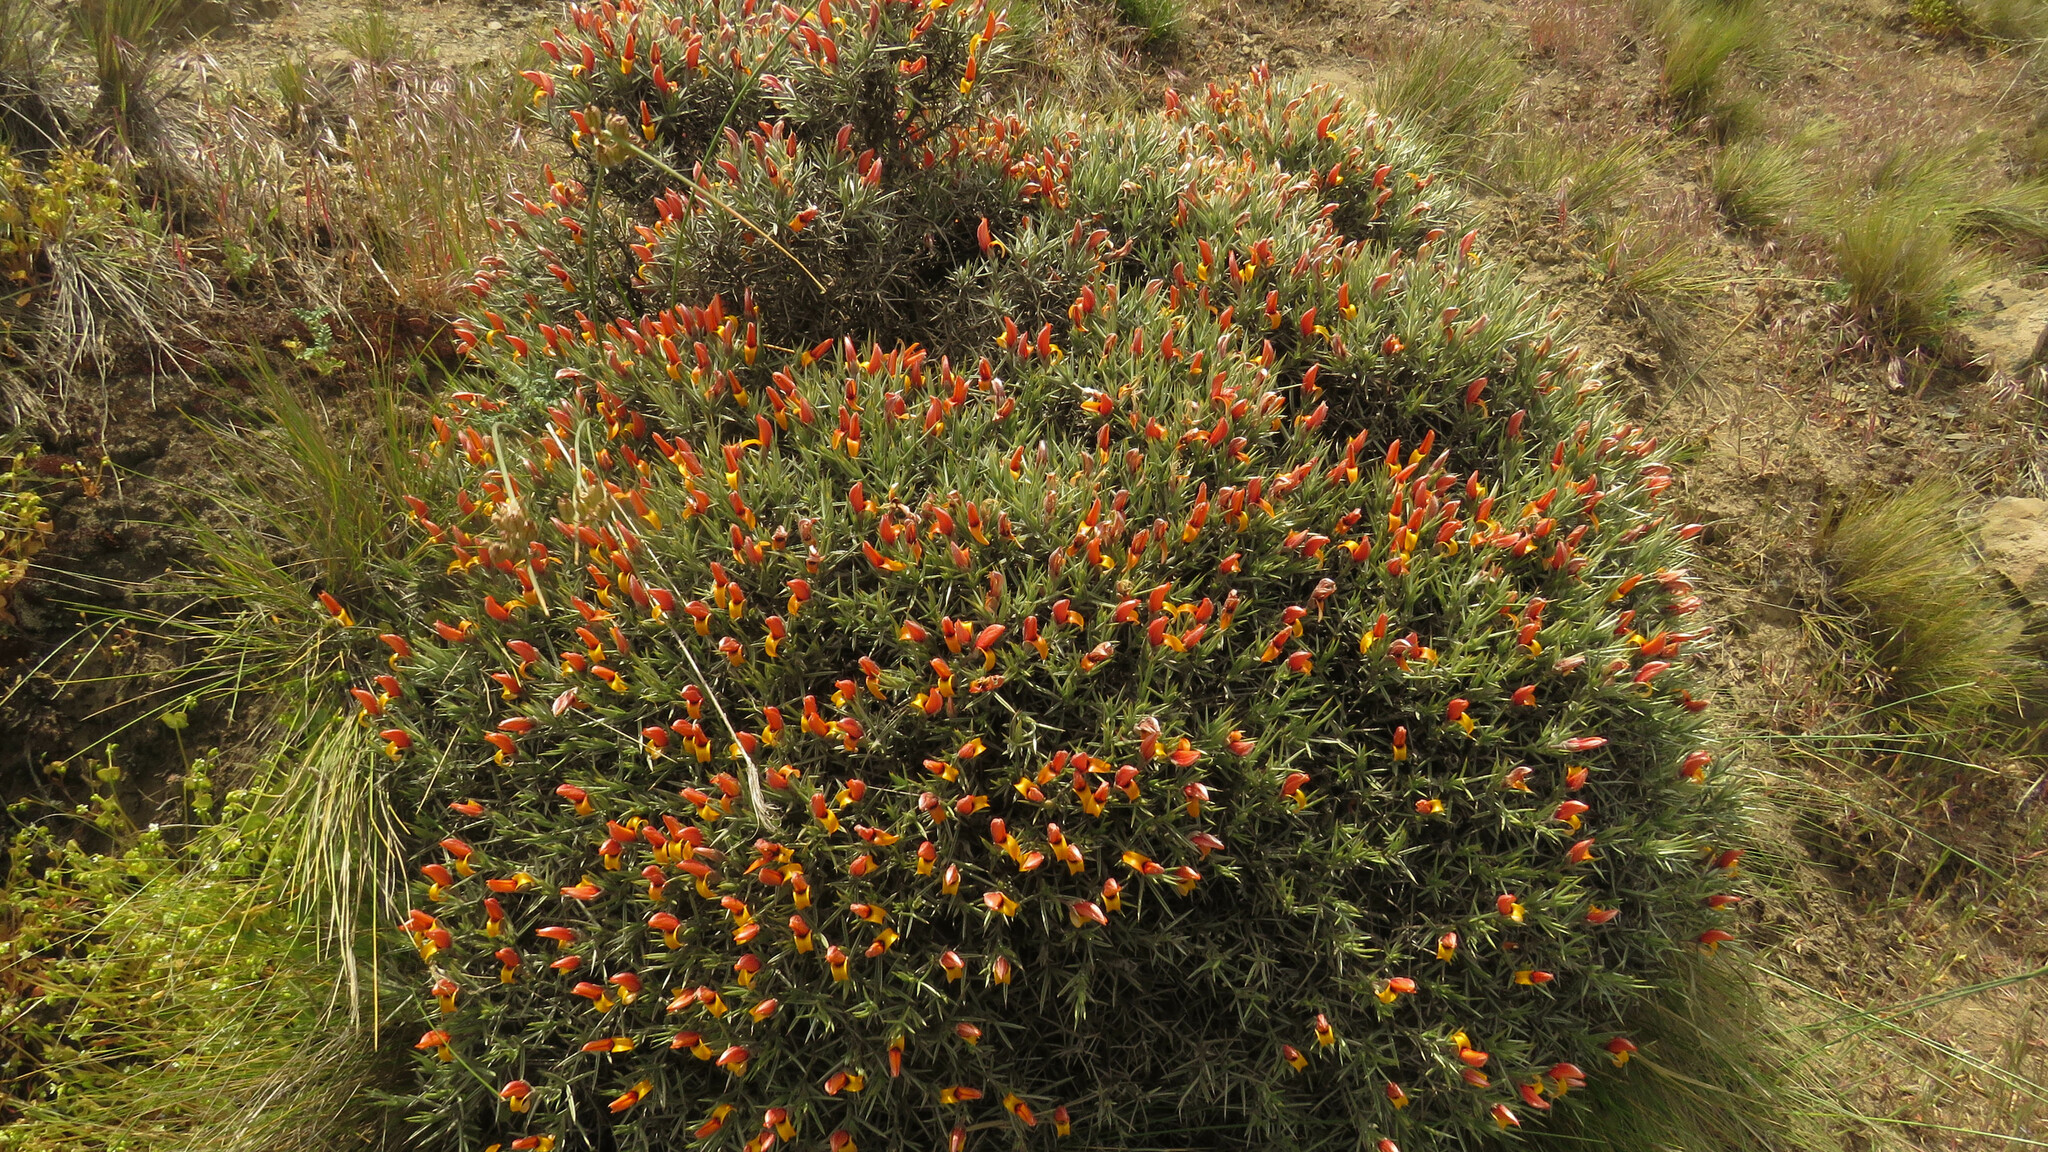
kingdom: Plantae
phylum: Tracheophyta
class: Magnoliopsida
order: Fabales
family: Fabaceae
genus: Anarthrophyllum
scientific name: Anarthrophyllum strigulipetalum
